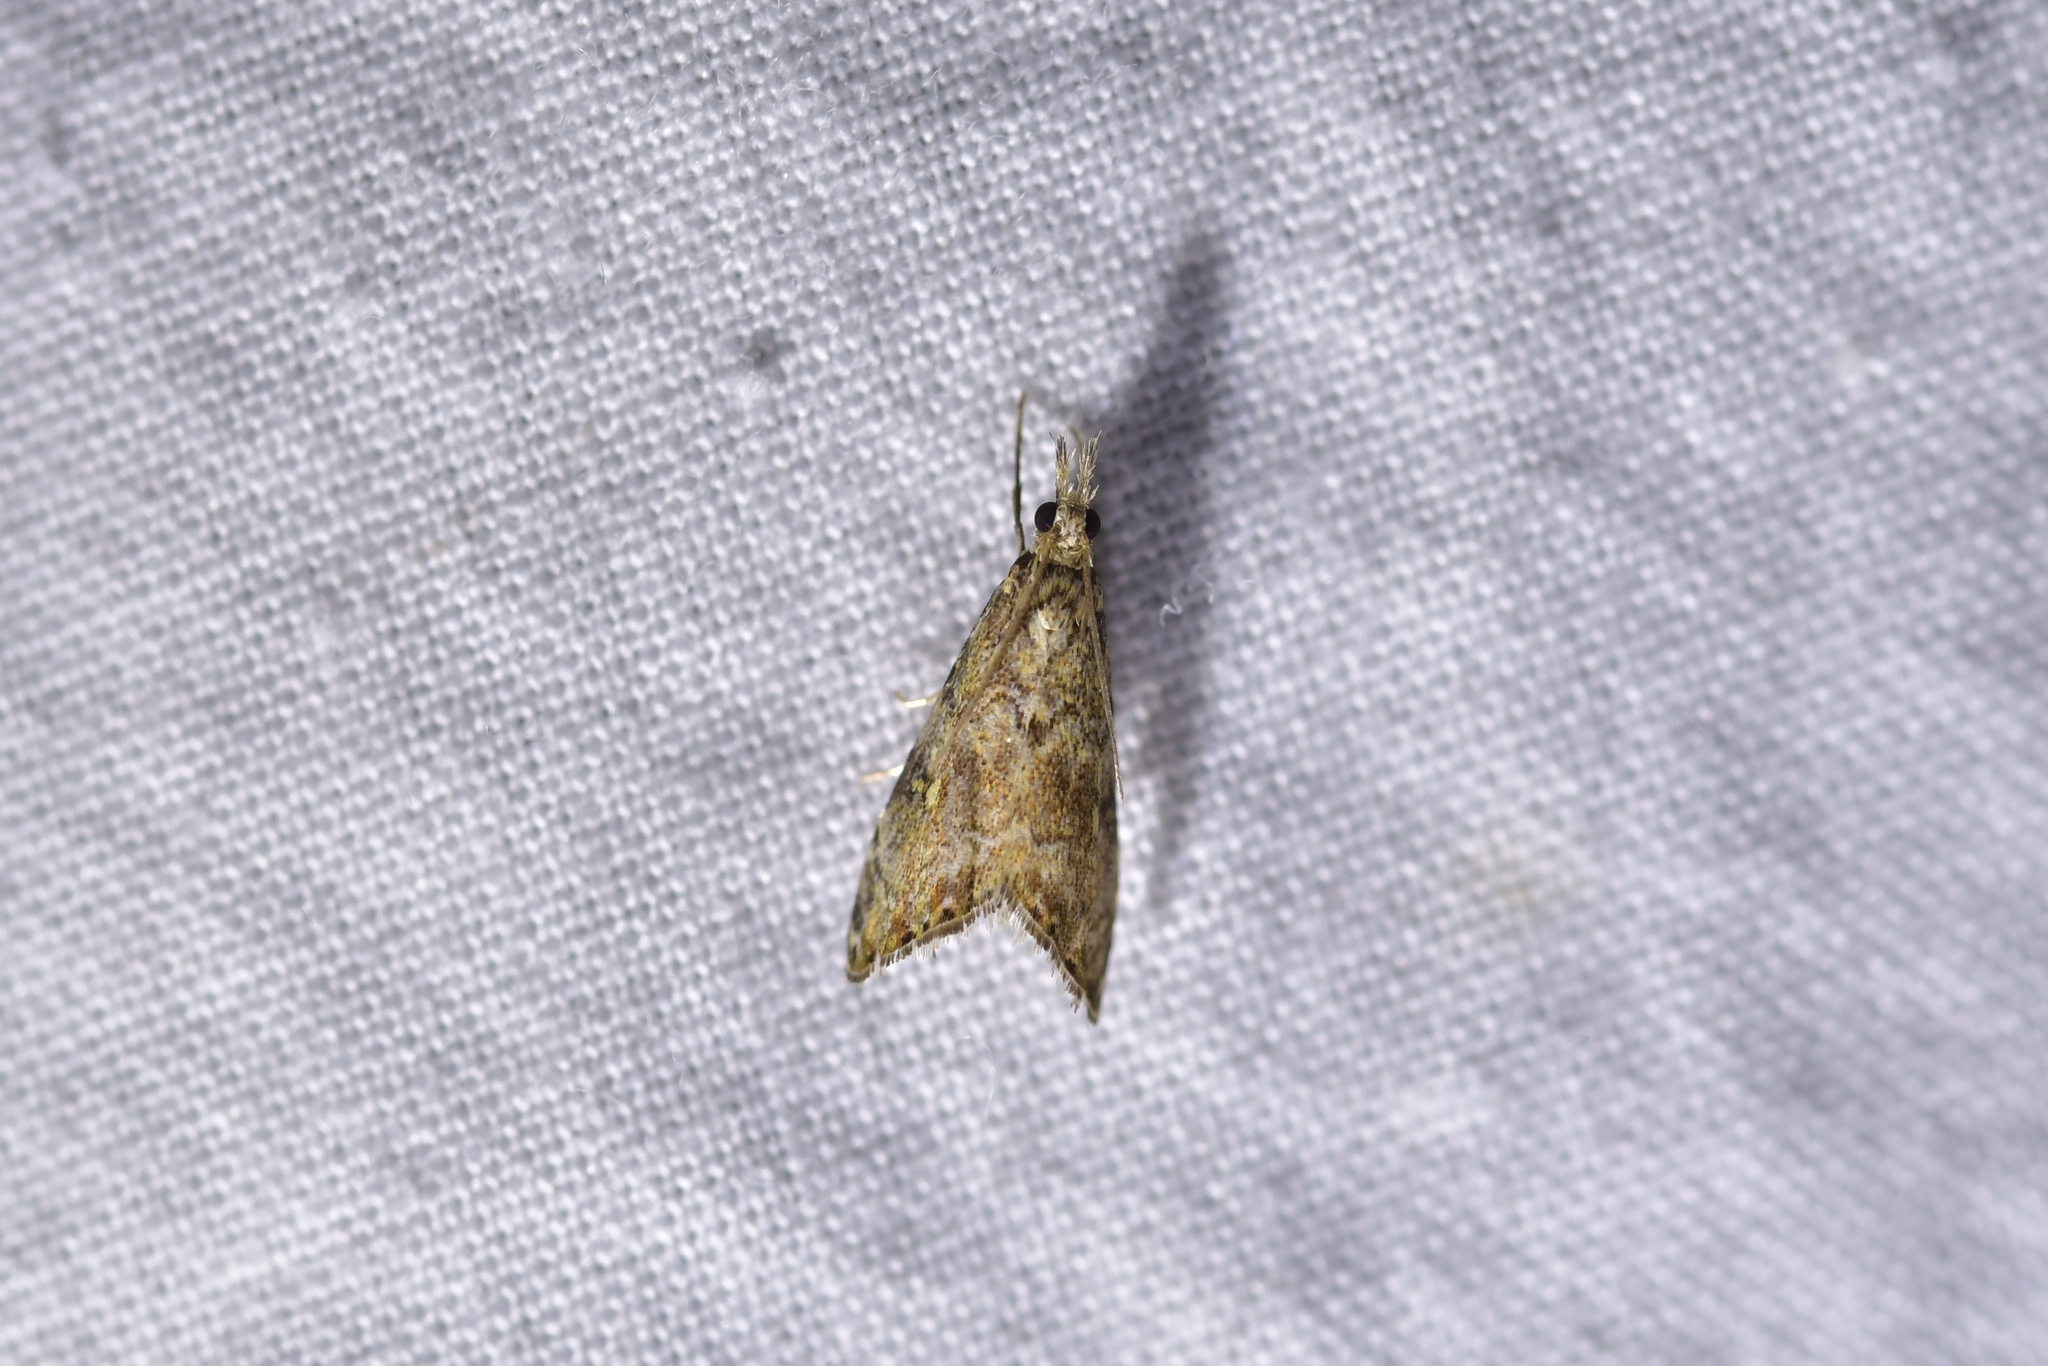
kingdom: Animalia
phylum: Arthropoda
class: Insecta
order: Lepidoptera
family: Crambidae
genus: Glaucocharis
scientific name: Glaucocharis parorma
